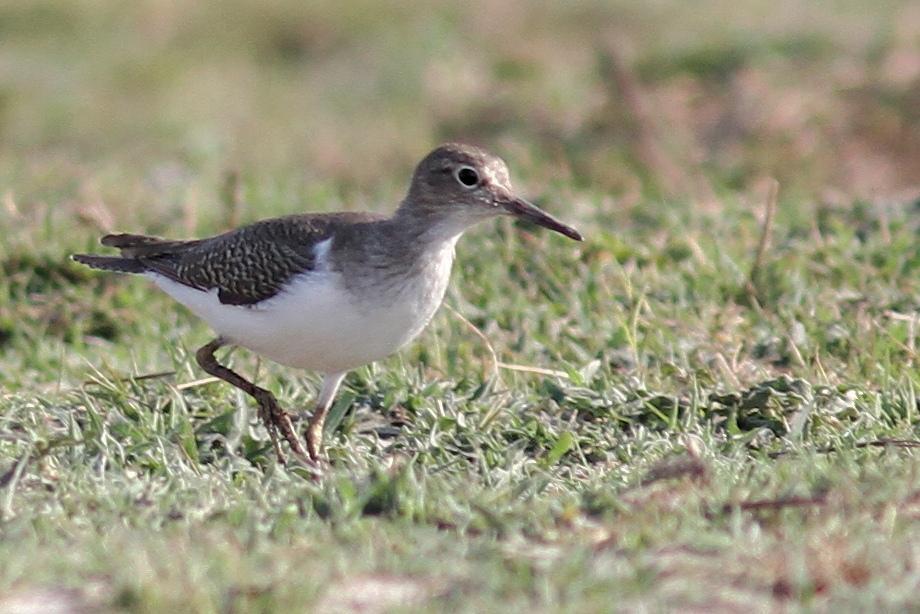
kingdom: Animalia
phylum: Chordata
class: Aves
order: Charadriiformes
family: Scolopacidae
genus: Actitis
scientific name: Actitis hypoleucos
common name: Common sandpiper
